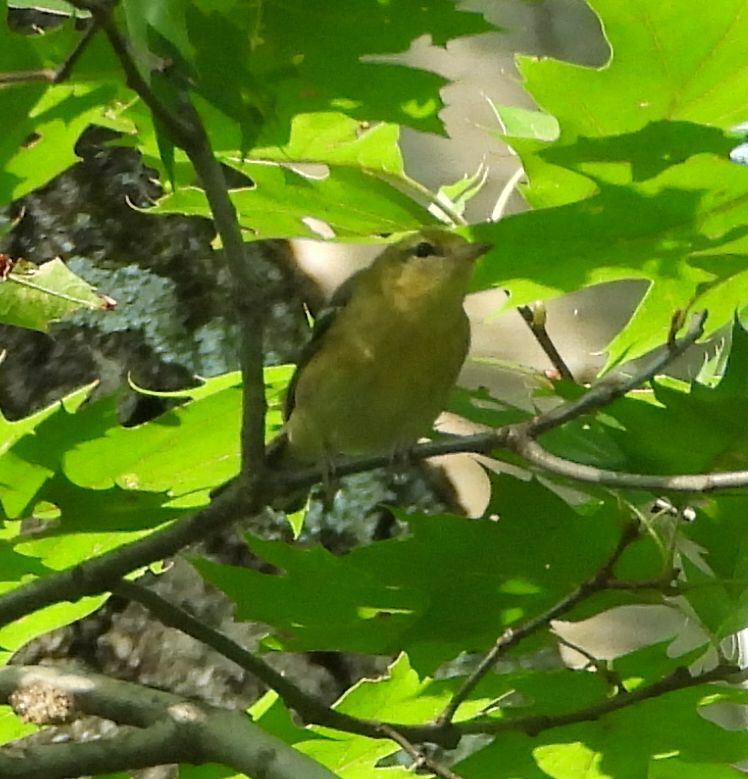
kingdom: Animalia
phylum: Chordata
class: Aves
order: Passeriformes
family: Parulidae
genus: Setophaga
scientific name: Setophaga castanea
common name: Bay-breasted warbler
